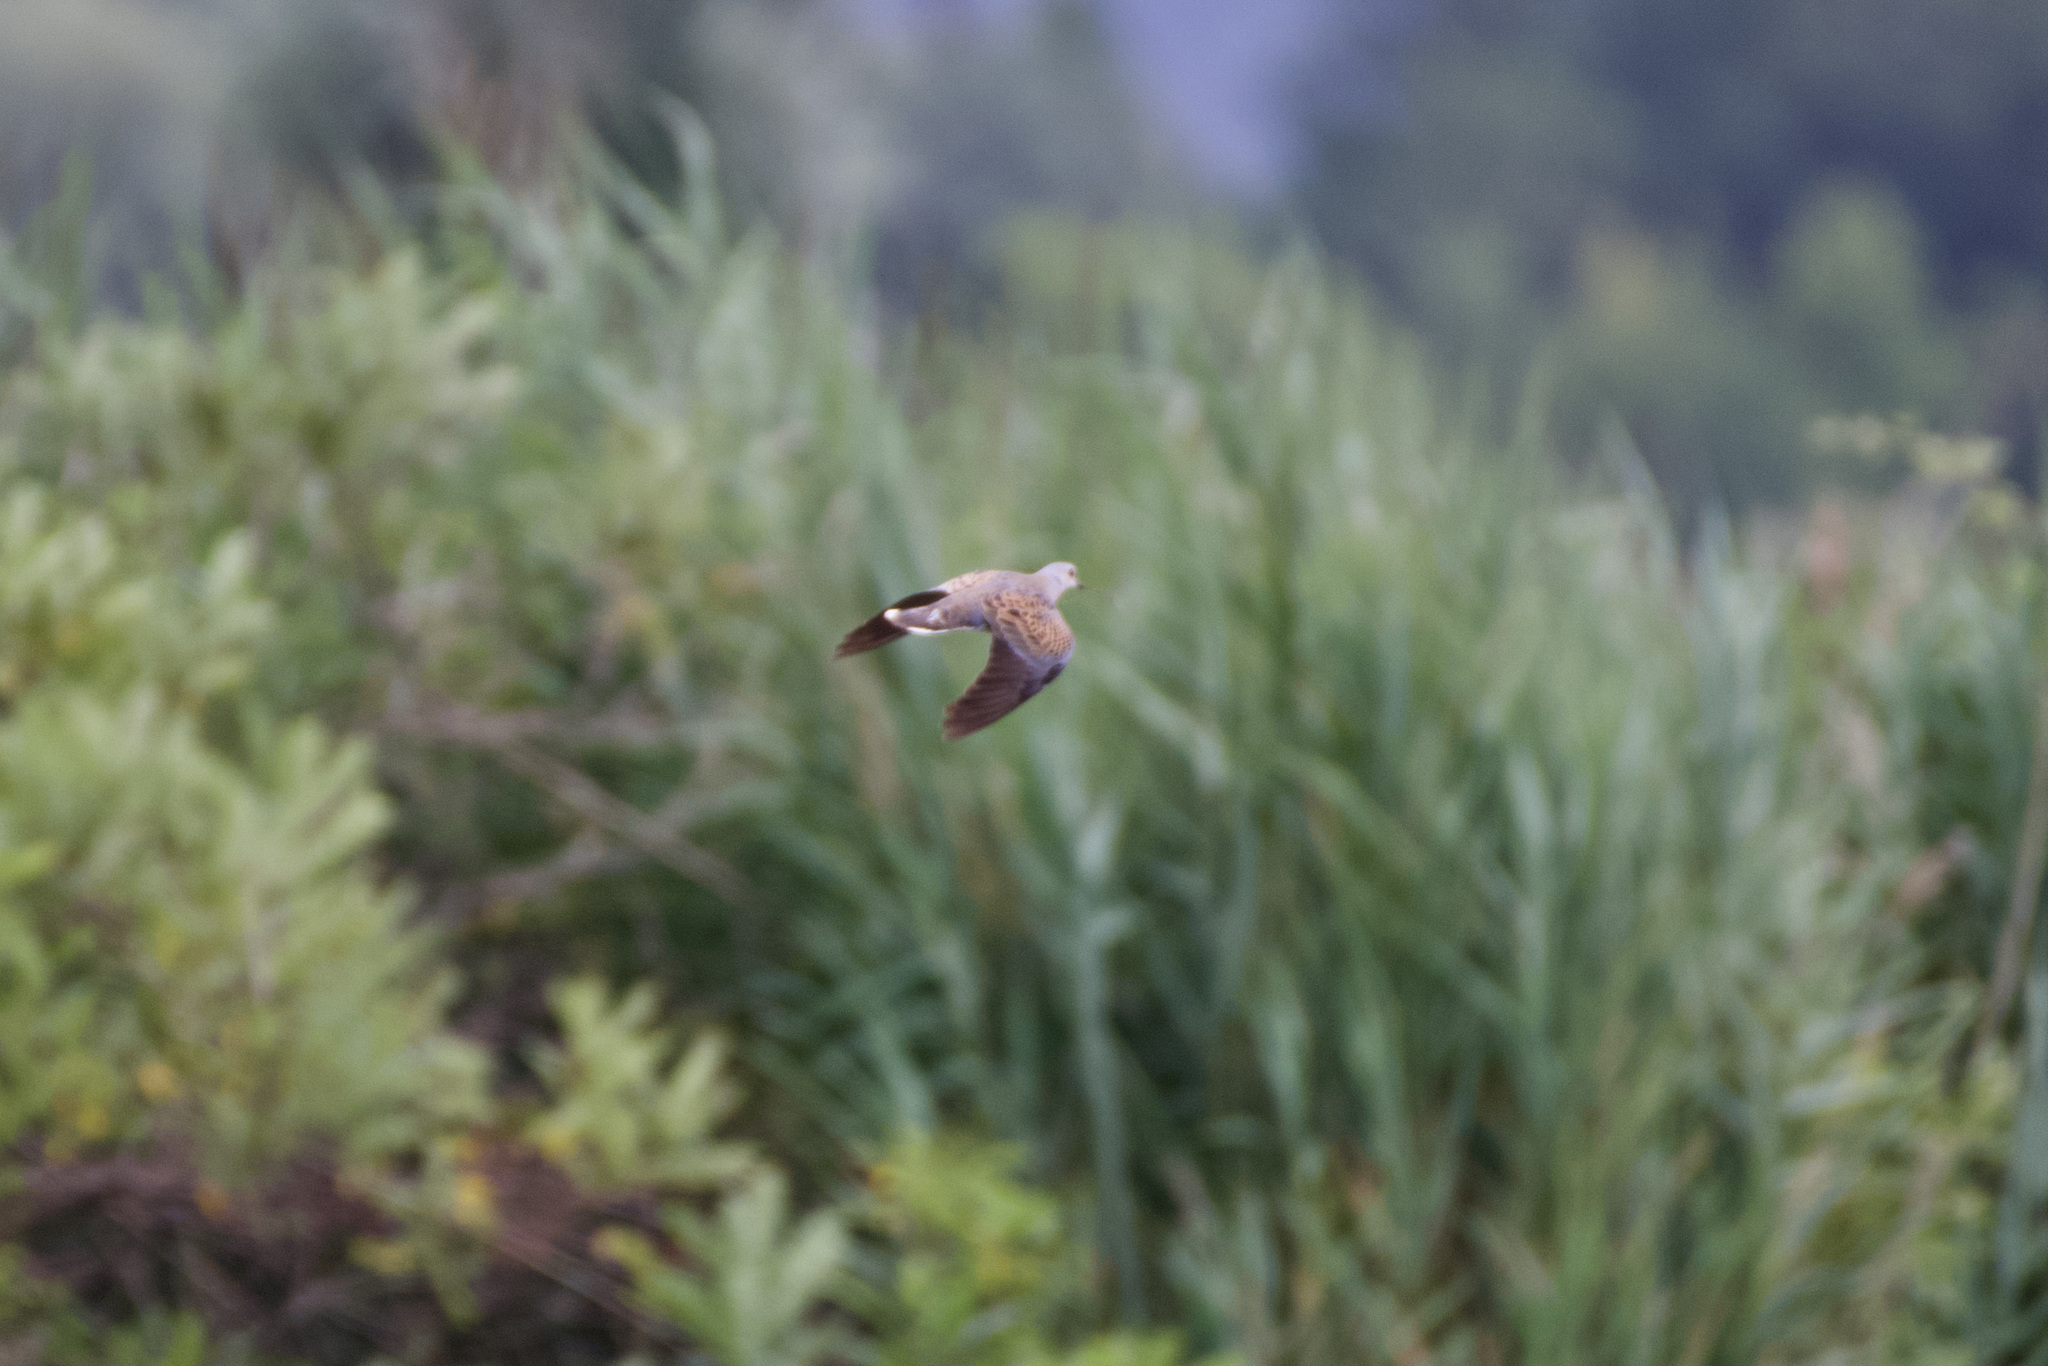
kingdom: Animalia
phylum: Chordata
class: Aves
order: Columbiformes
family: Columbidae
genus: Streptopelia
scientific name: Streptopelia turtur
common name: European turtle dove
